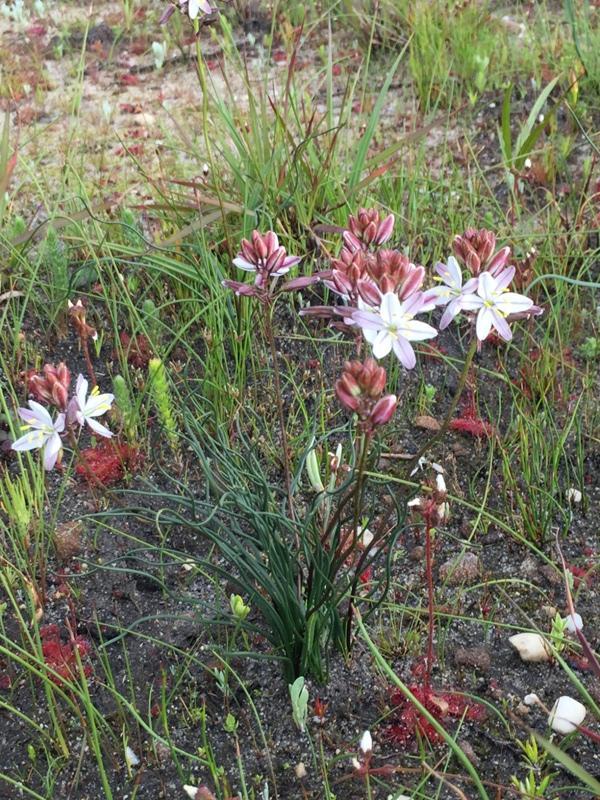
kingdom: Plantae
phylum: Tracheophyta
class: Liliopsida
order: Asparagales
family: Asparagaceae
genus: Drimia
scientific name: Drimia exuviata
